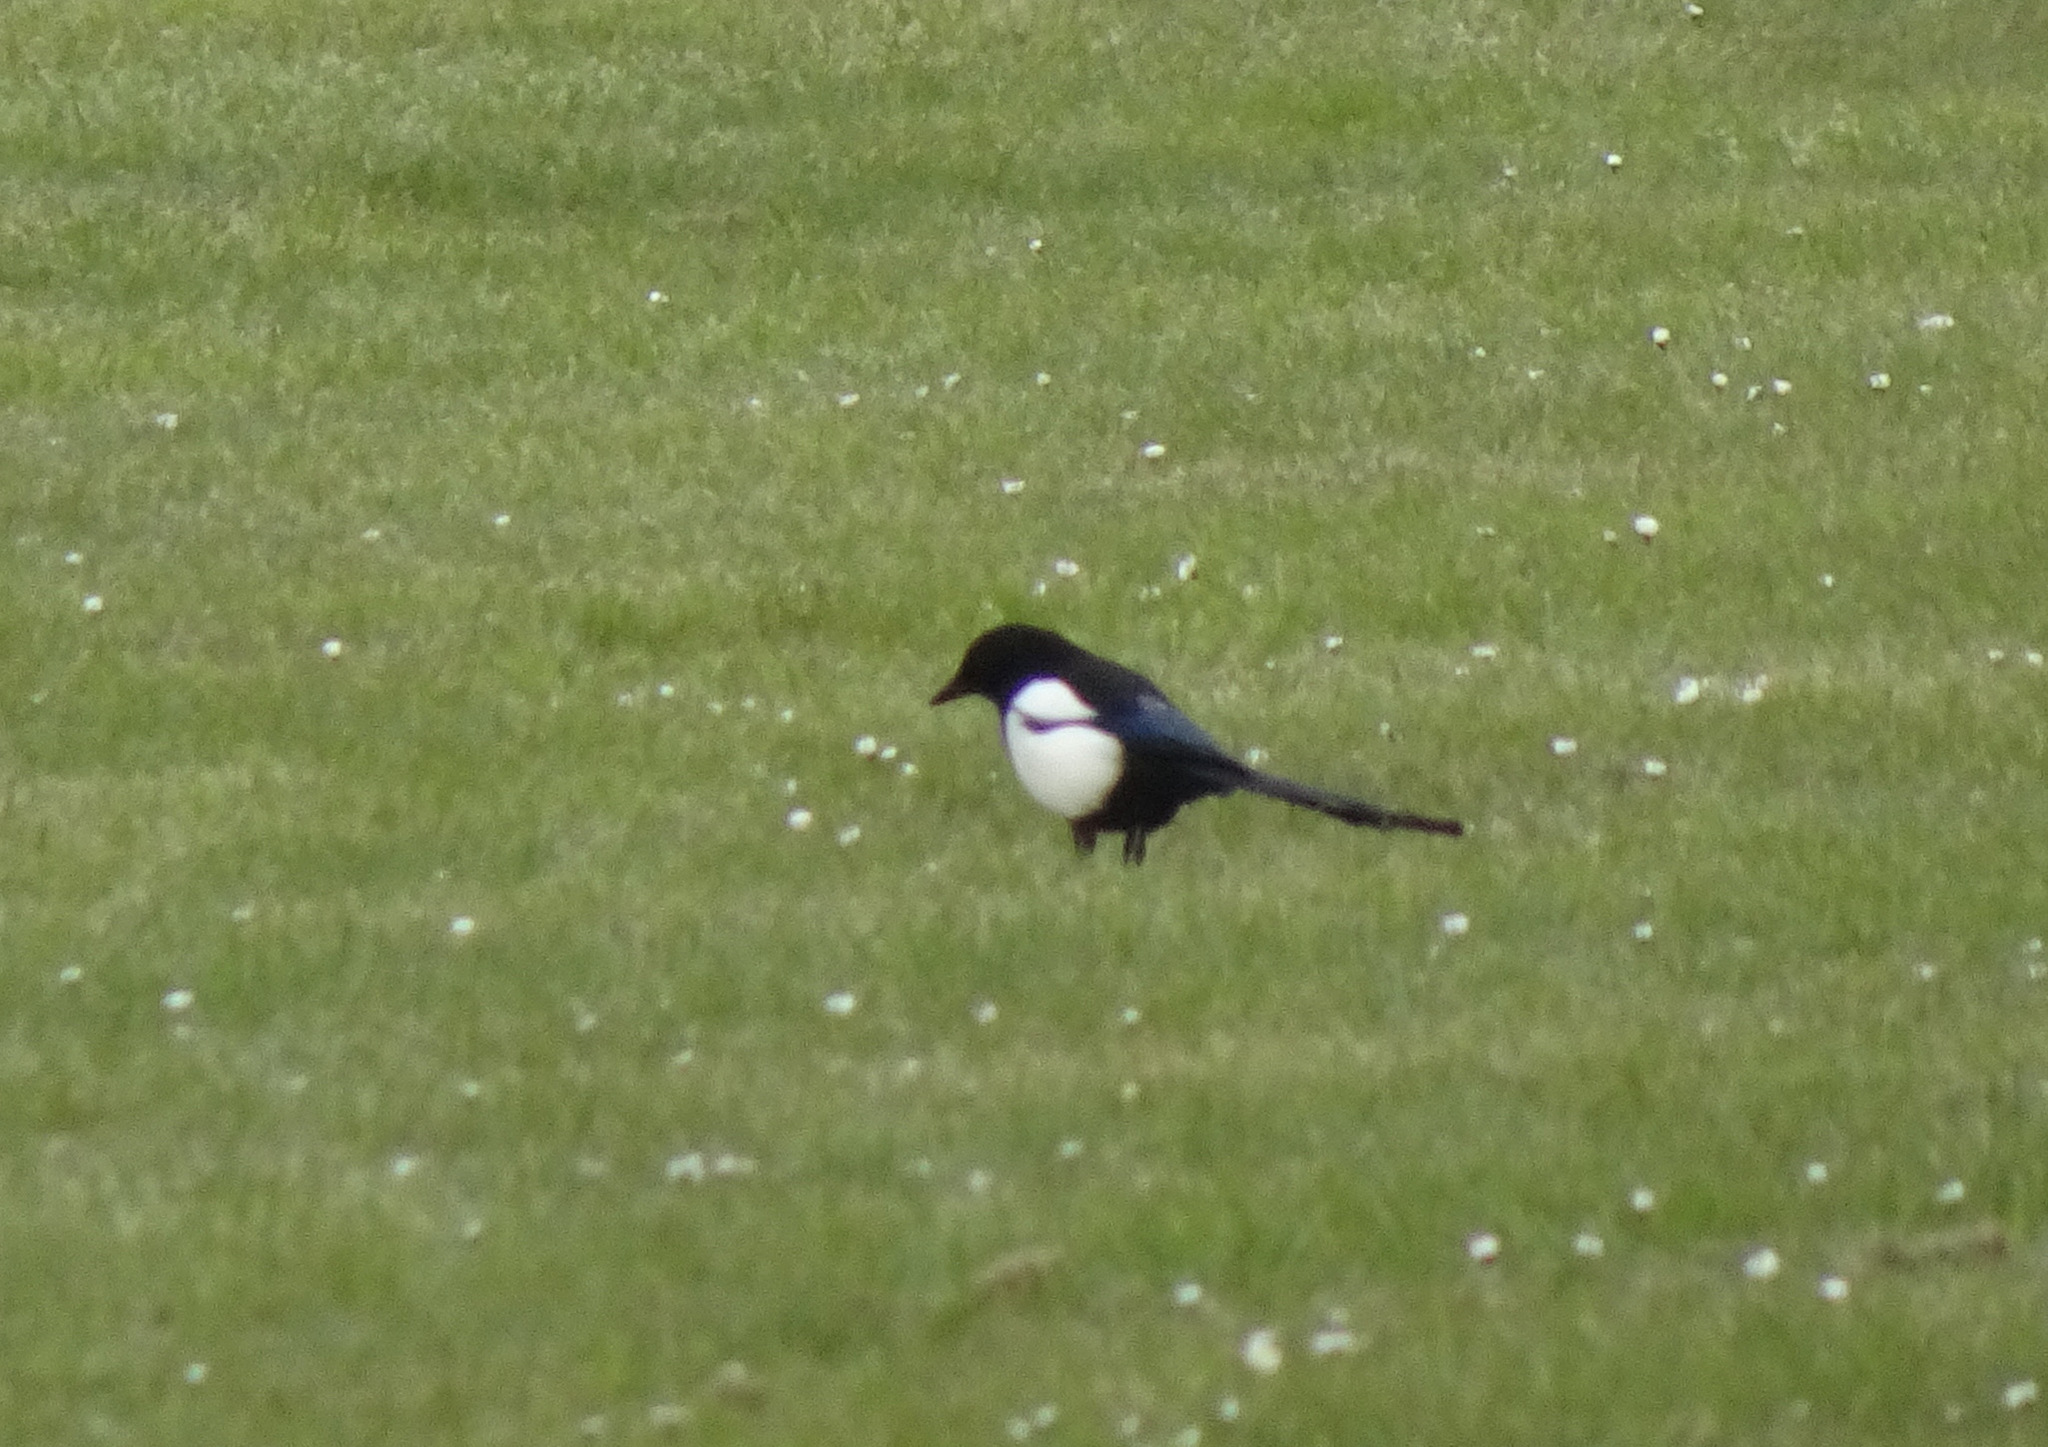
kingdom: Animalia
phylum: Chordata
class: Aves
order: Passeriformes
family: Corvidae
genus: Pica
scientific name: Pica pica
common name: Eurasian magpie
